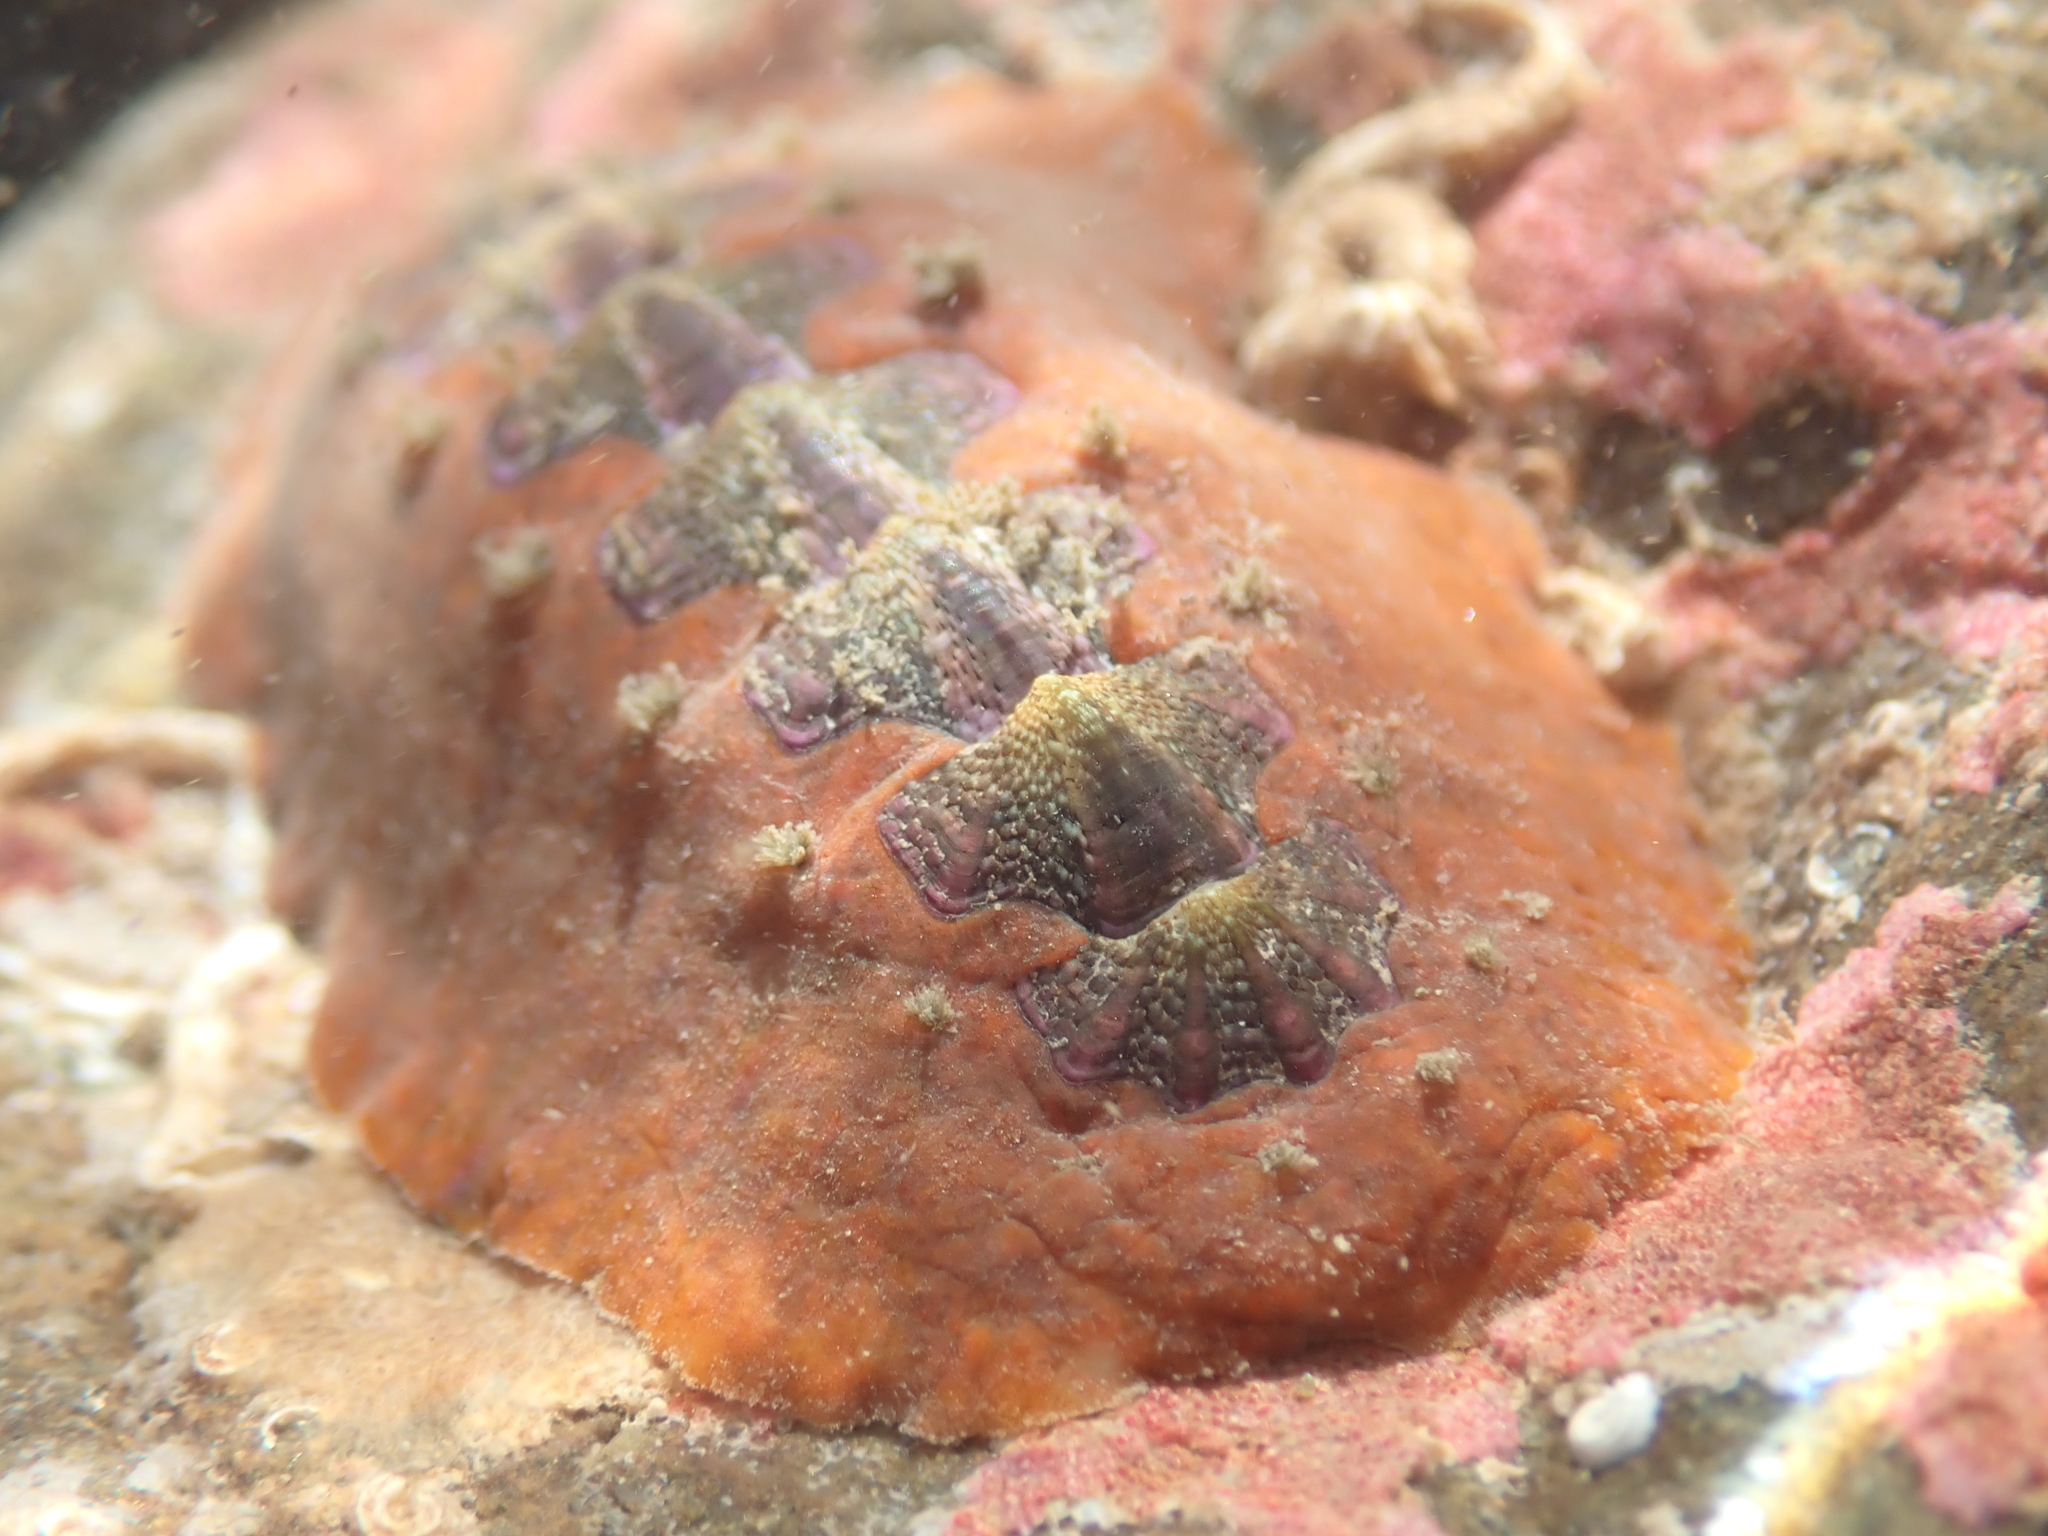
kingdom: Animalia
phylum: Mollusca
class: Polyplacophora
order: Chitonida
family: Acanthochitonidae
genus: Notoplax
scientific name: Notoplax violacea
